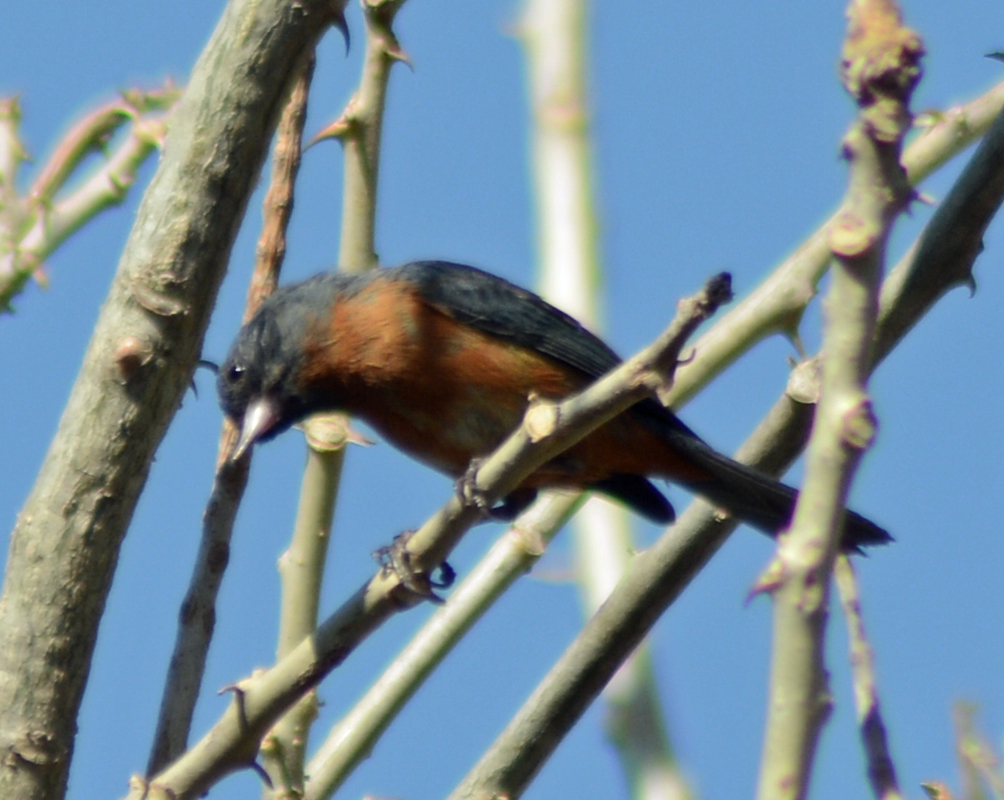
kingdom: Animalia
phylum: Chordata
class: Aves
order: Passeriformes
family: Thraupidae
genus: Diglossa
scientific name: Diglossa baritula
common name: Cinnamon-bellied flowerpiercer
